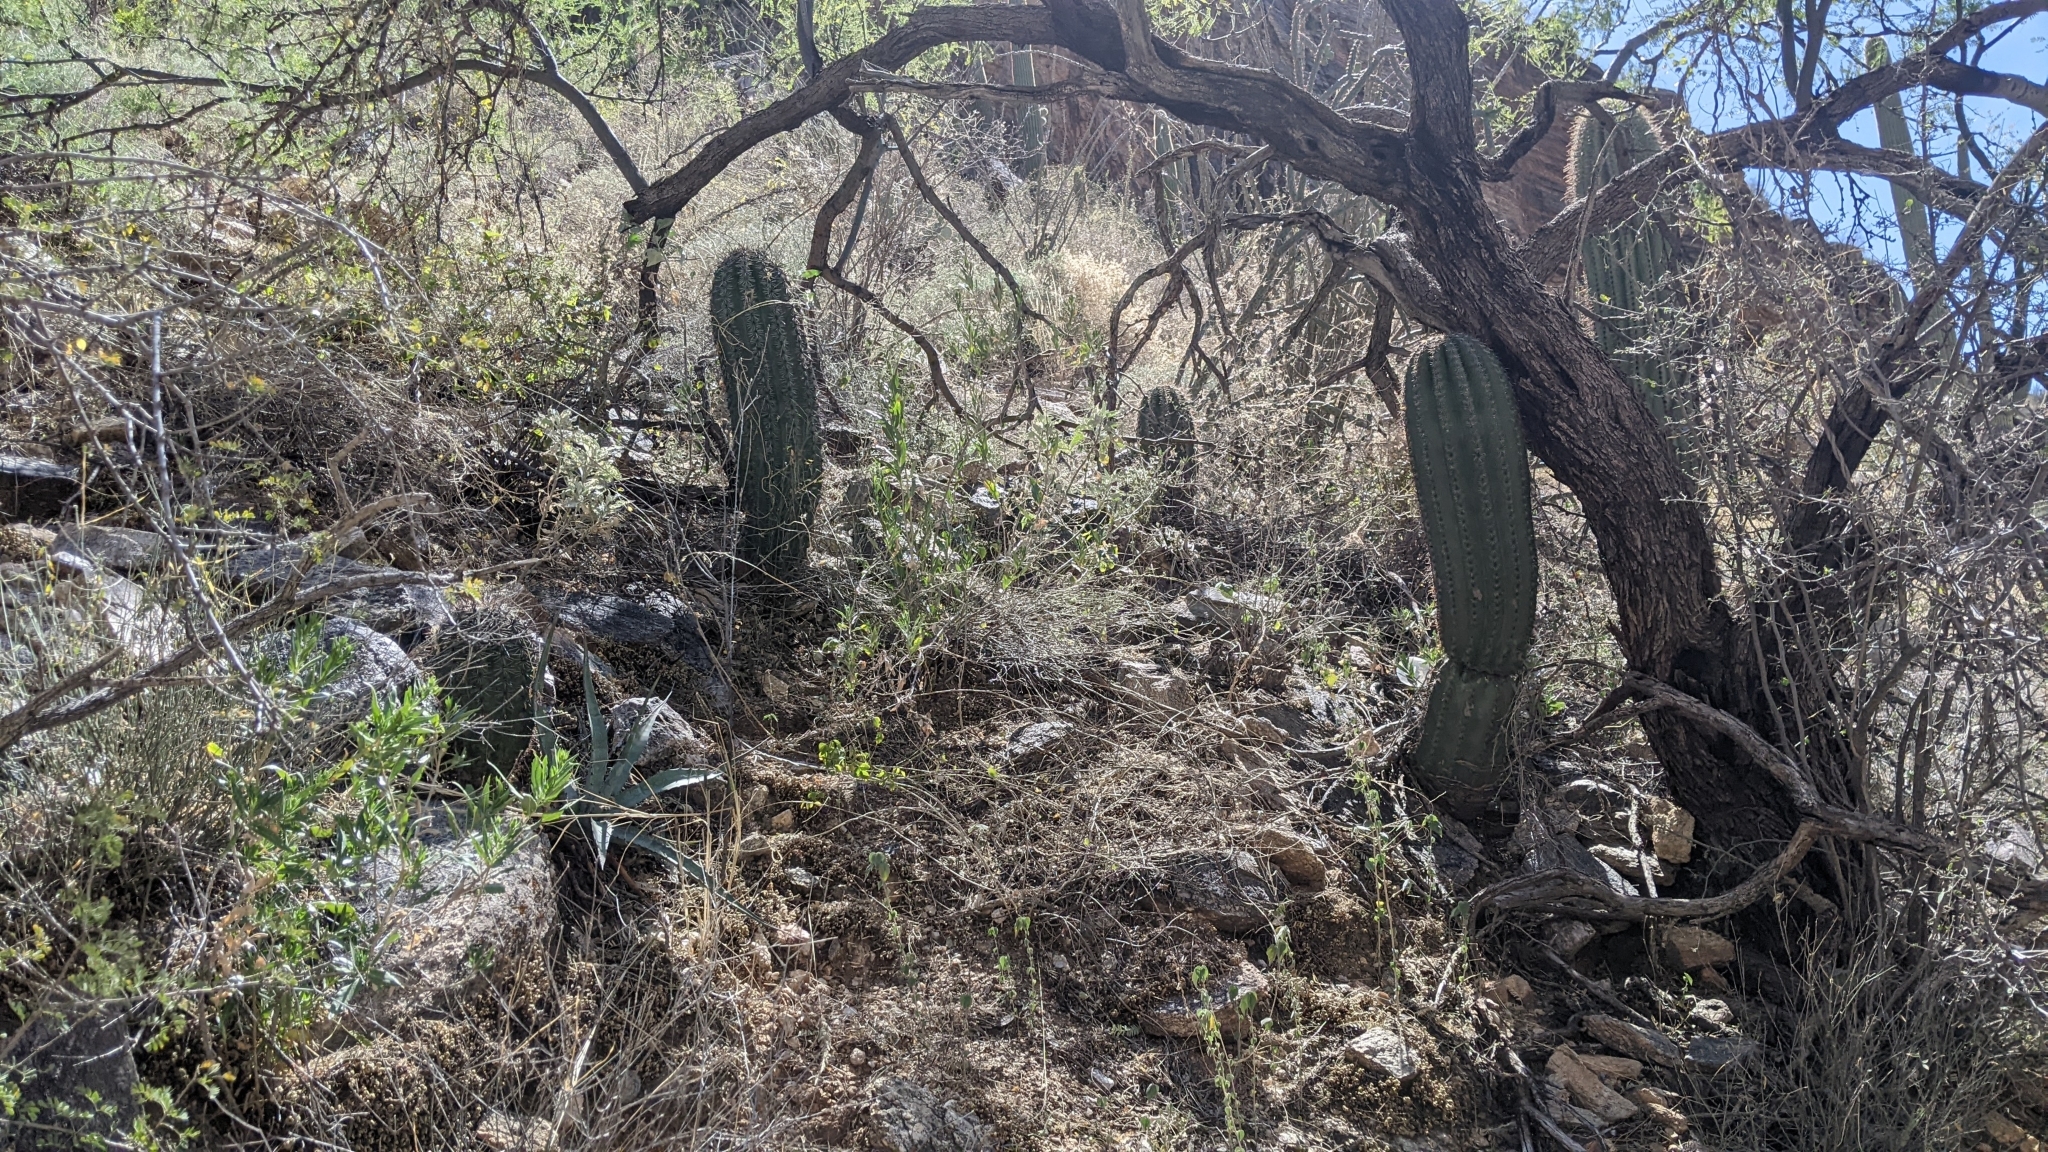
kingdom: Plantae
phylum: Tracheophyta
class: Magnoliopsida
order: Caryophyllales
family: Cactaceae
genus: Carnegiea
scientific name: Carnegiea gigantea
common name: Saguaro
